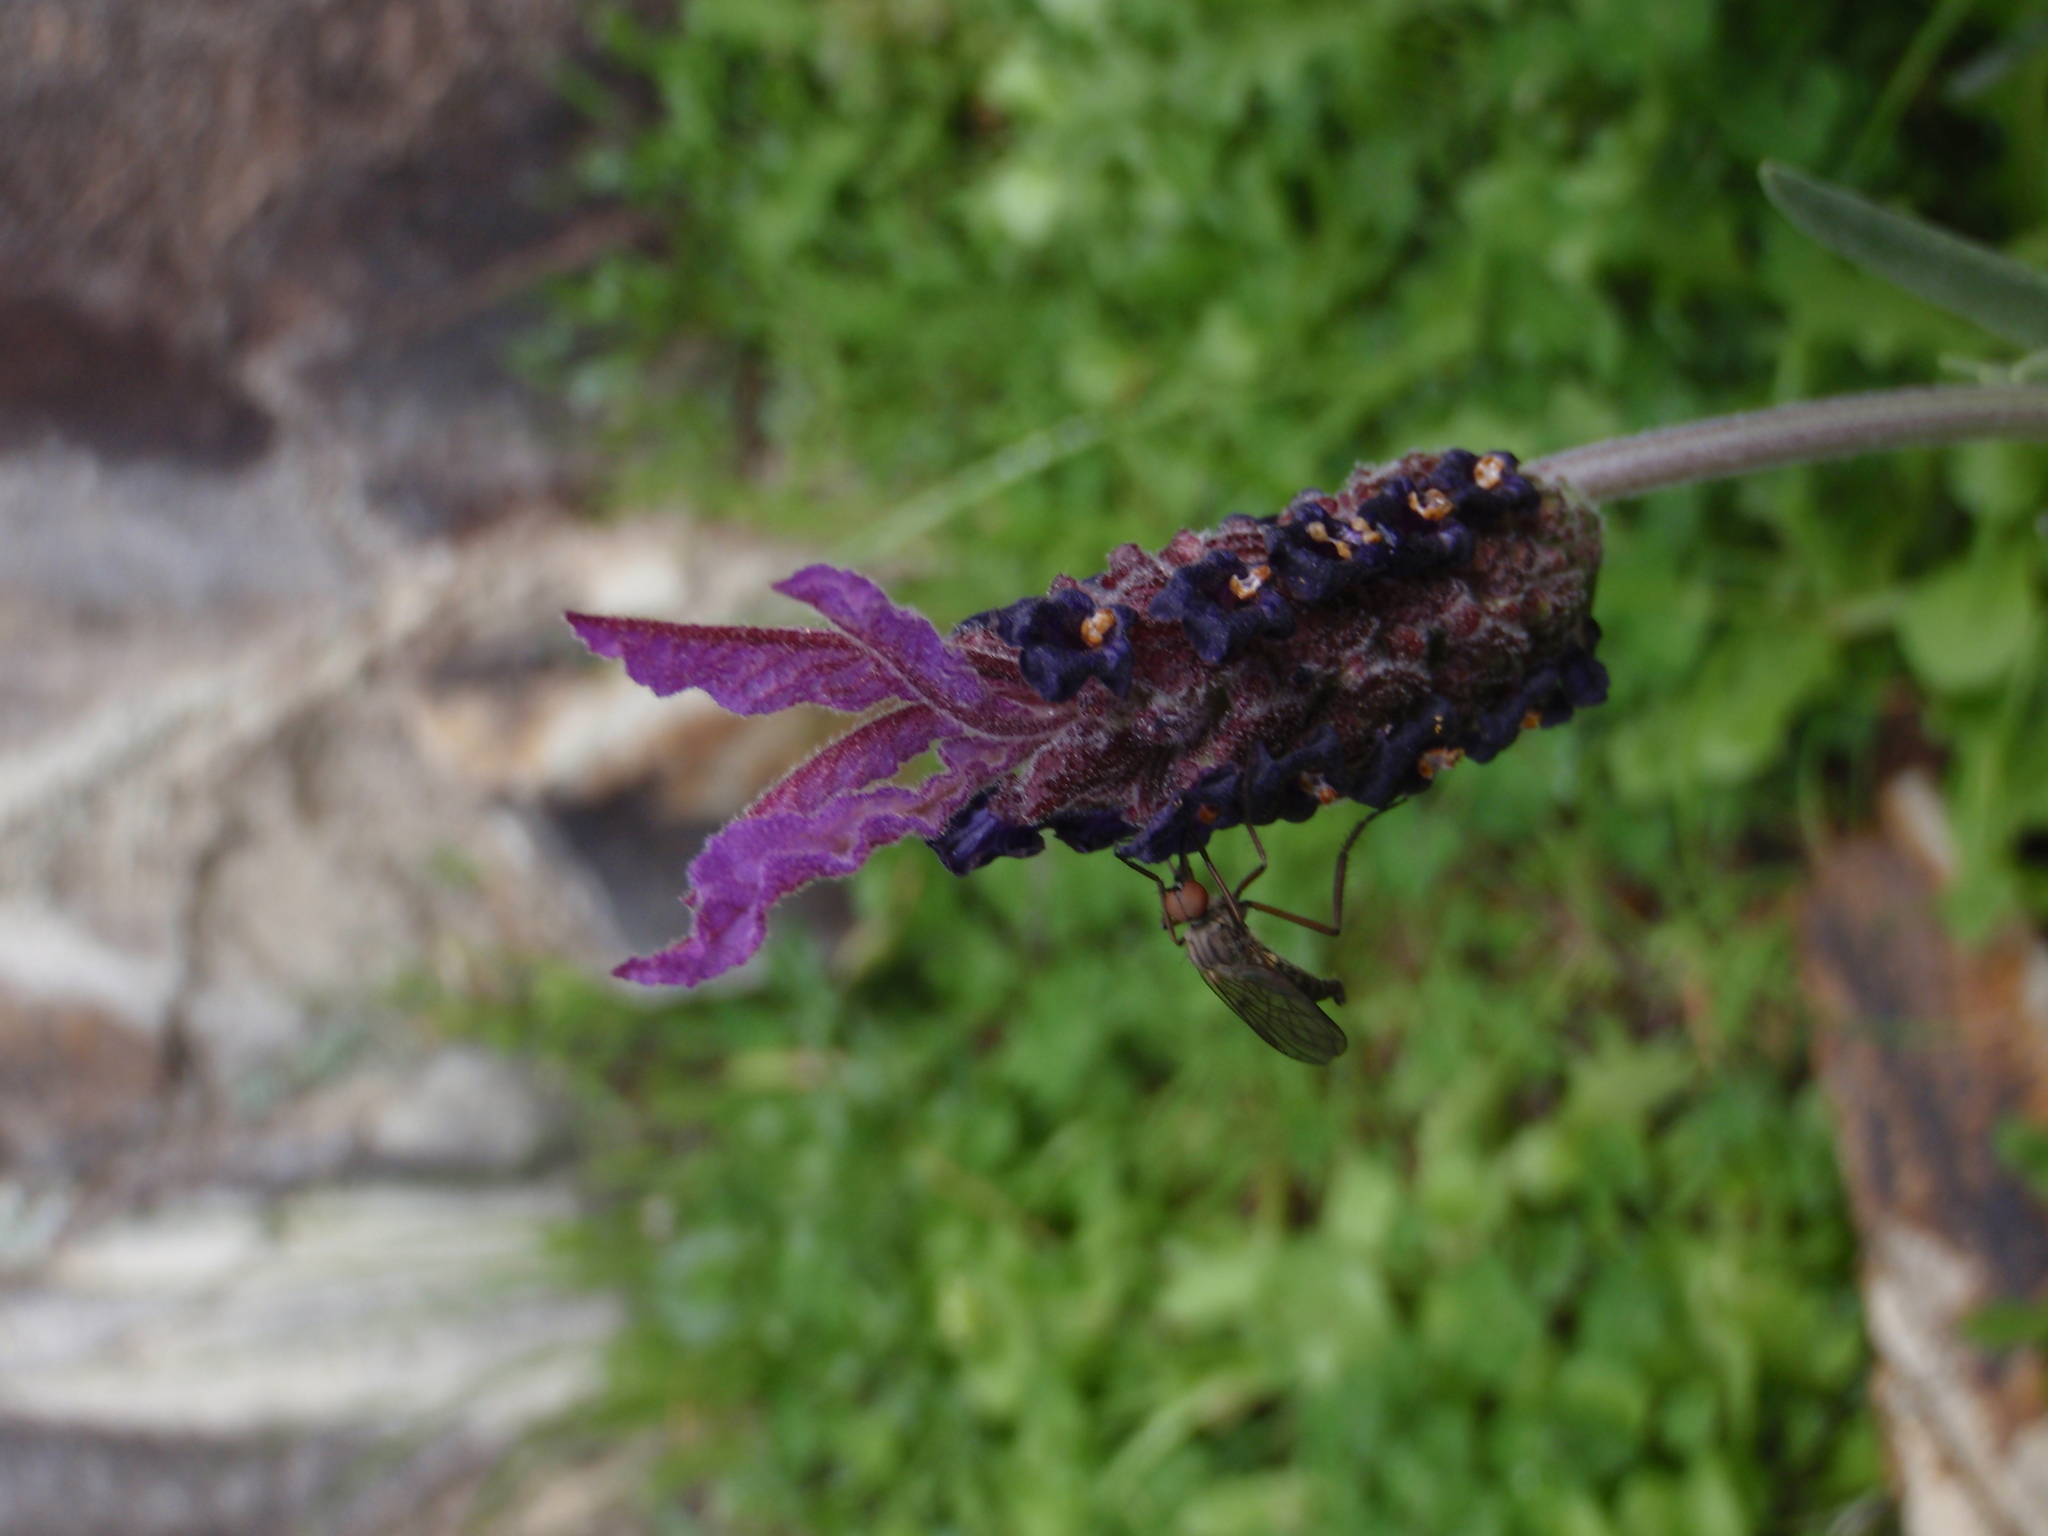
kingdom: Plantae
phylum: Tracheophyta
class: Magnoliopsida
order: Lamiales
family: Lamiaceae
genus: Lavandula
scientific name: Lavandula pedunculata
